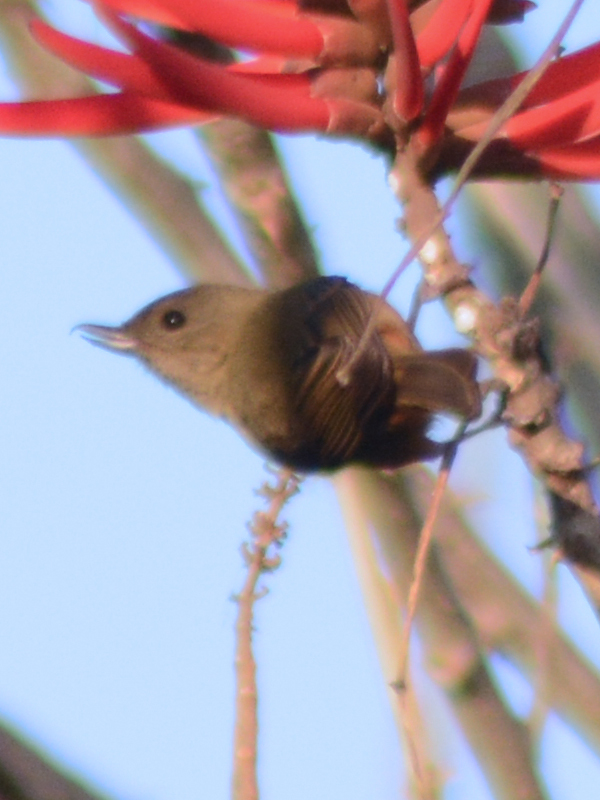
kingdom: Animalia
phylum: Chordata
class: Aves
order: Passeriformes
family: Thraupidae
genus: Diglossa
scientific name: Diglossa baritula
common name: Cinnamon-bellied flowerpiercer
